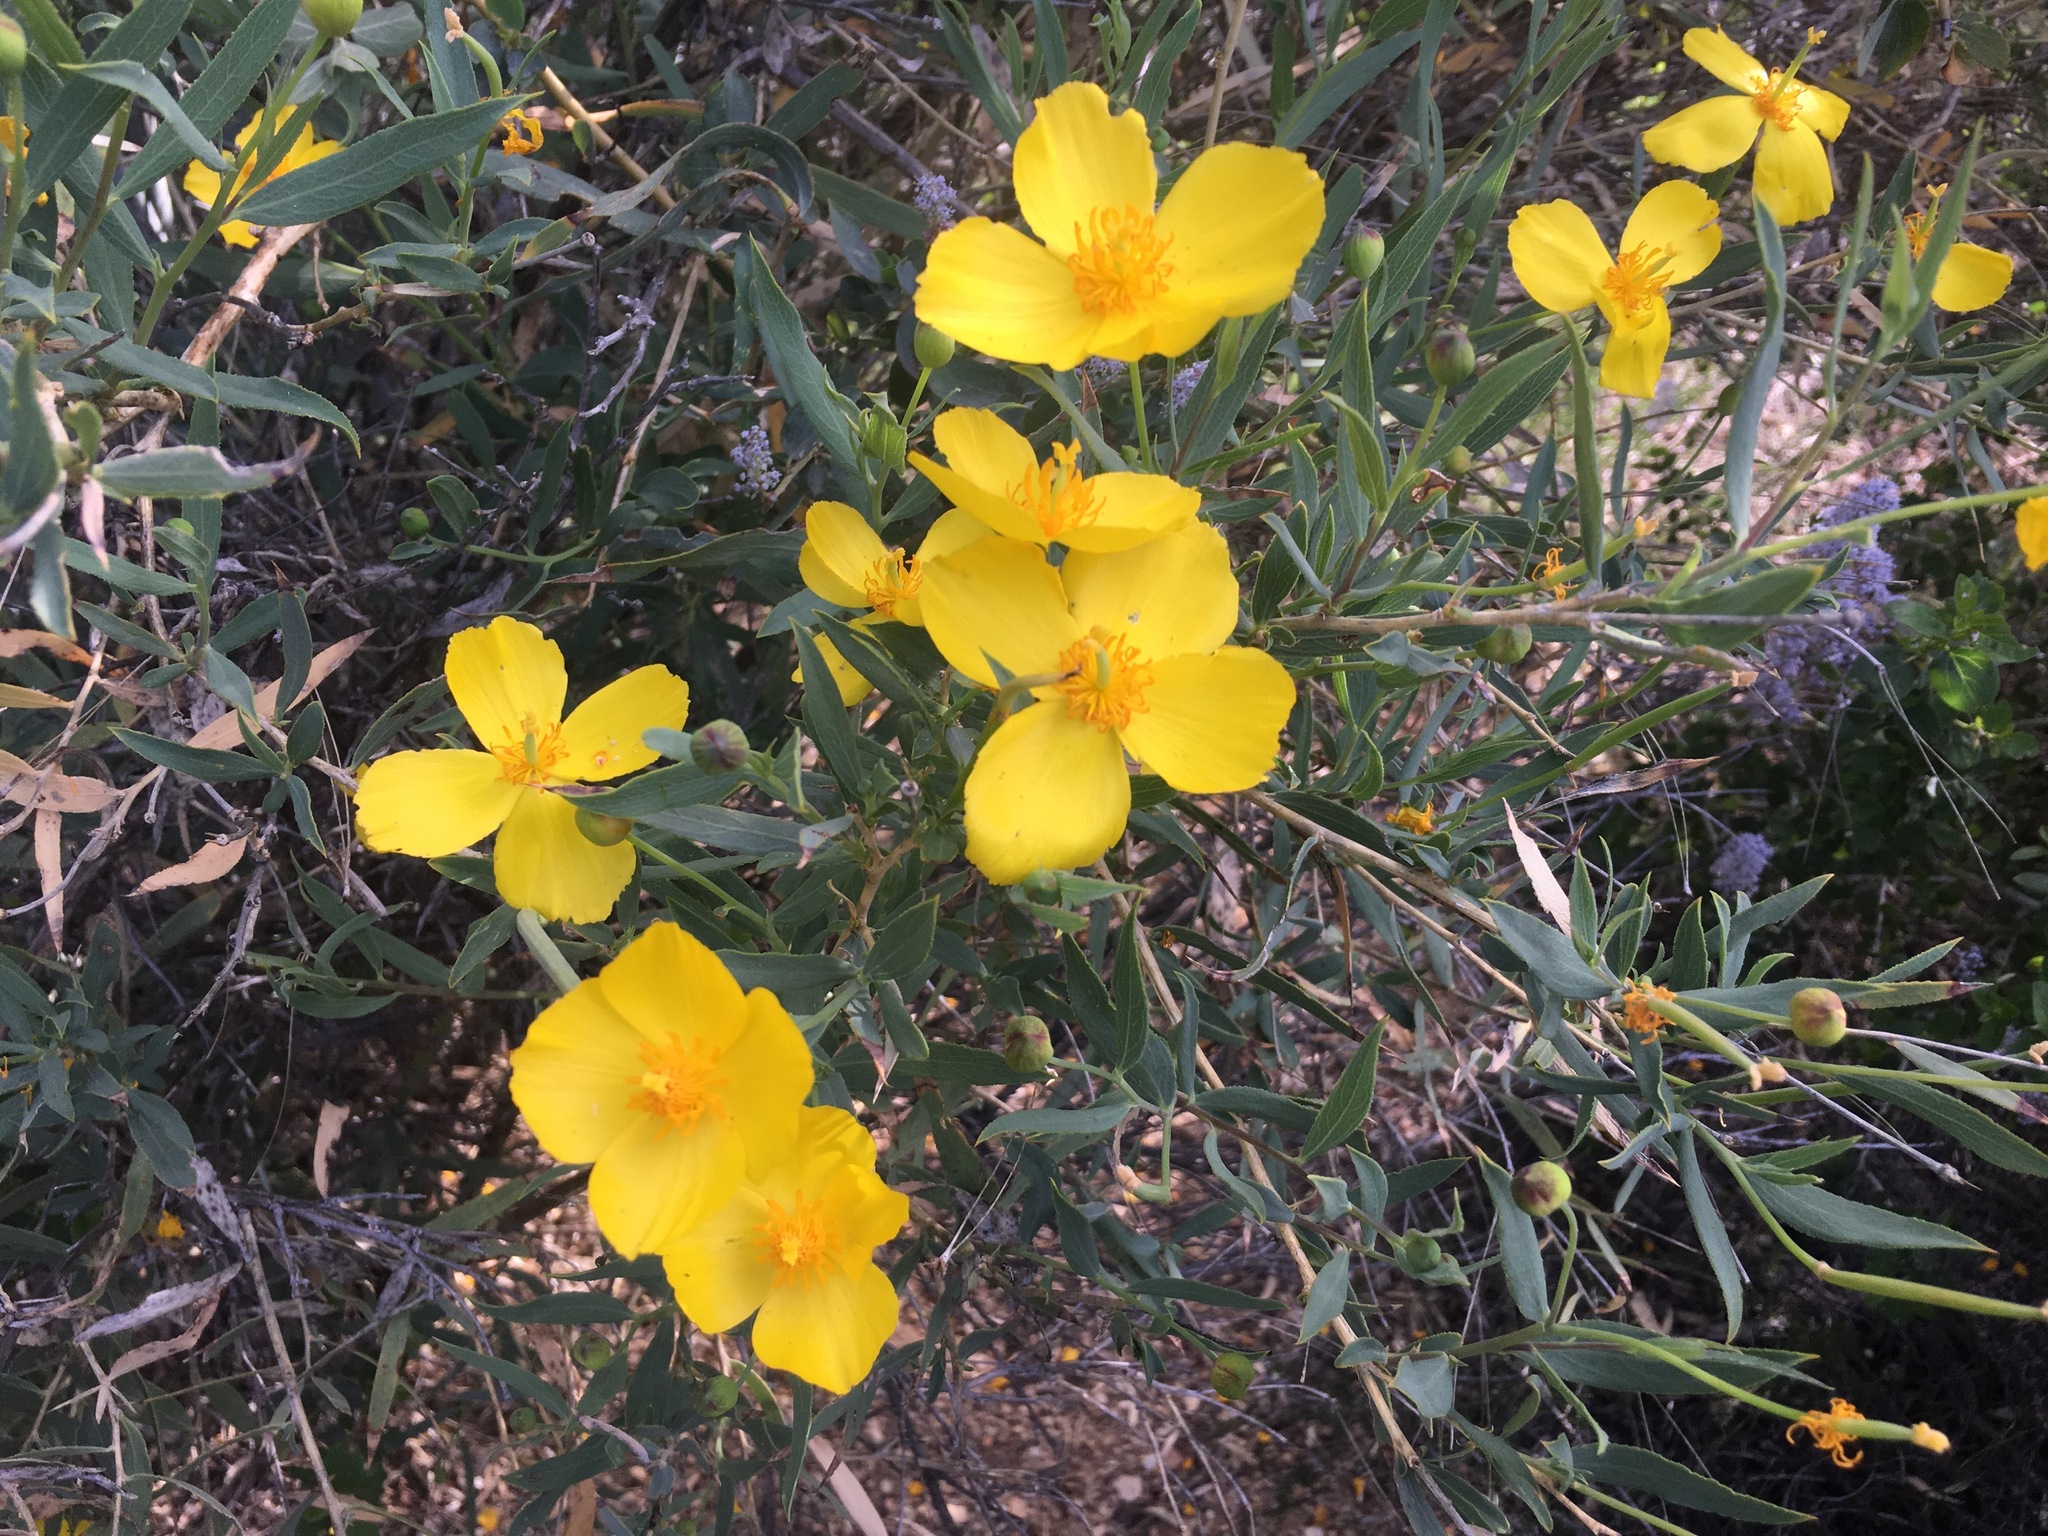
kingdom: Plantae
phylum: Tracheophyta
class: Magnoliopsida
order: Ranunculales
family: Papaveraceae
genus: Dendromecon
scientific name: Dendromecon rigida
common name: Tree poppy
